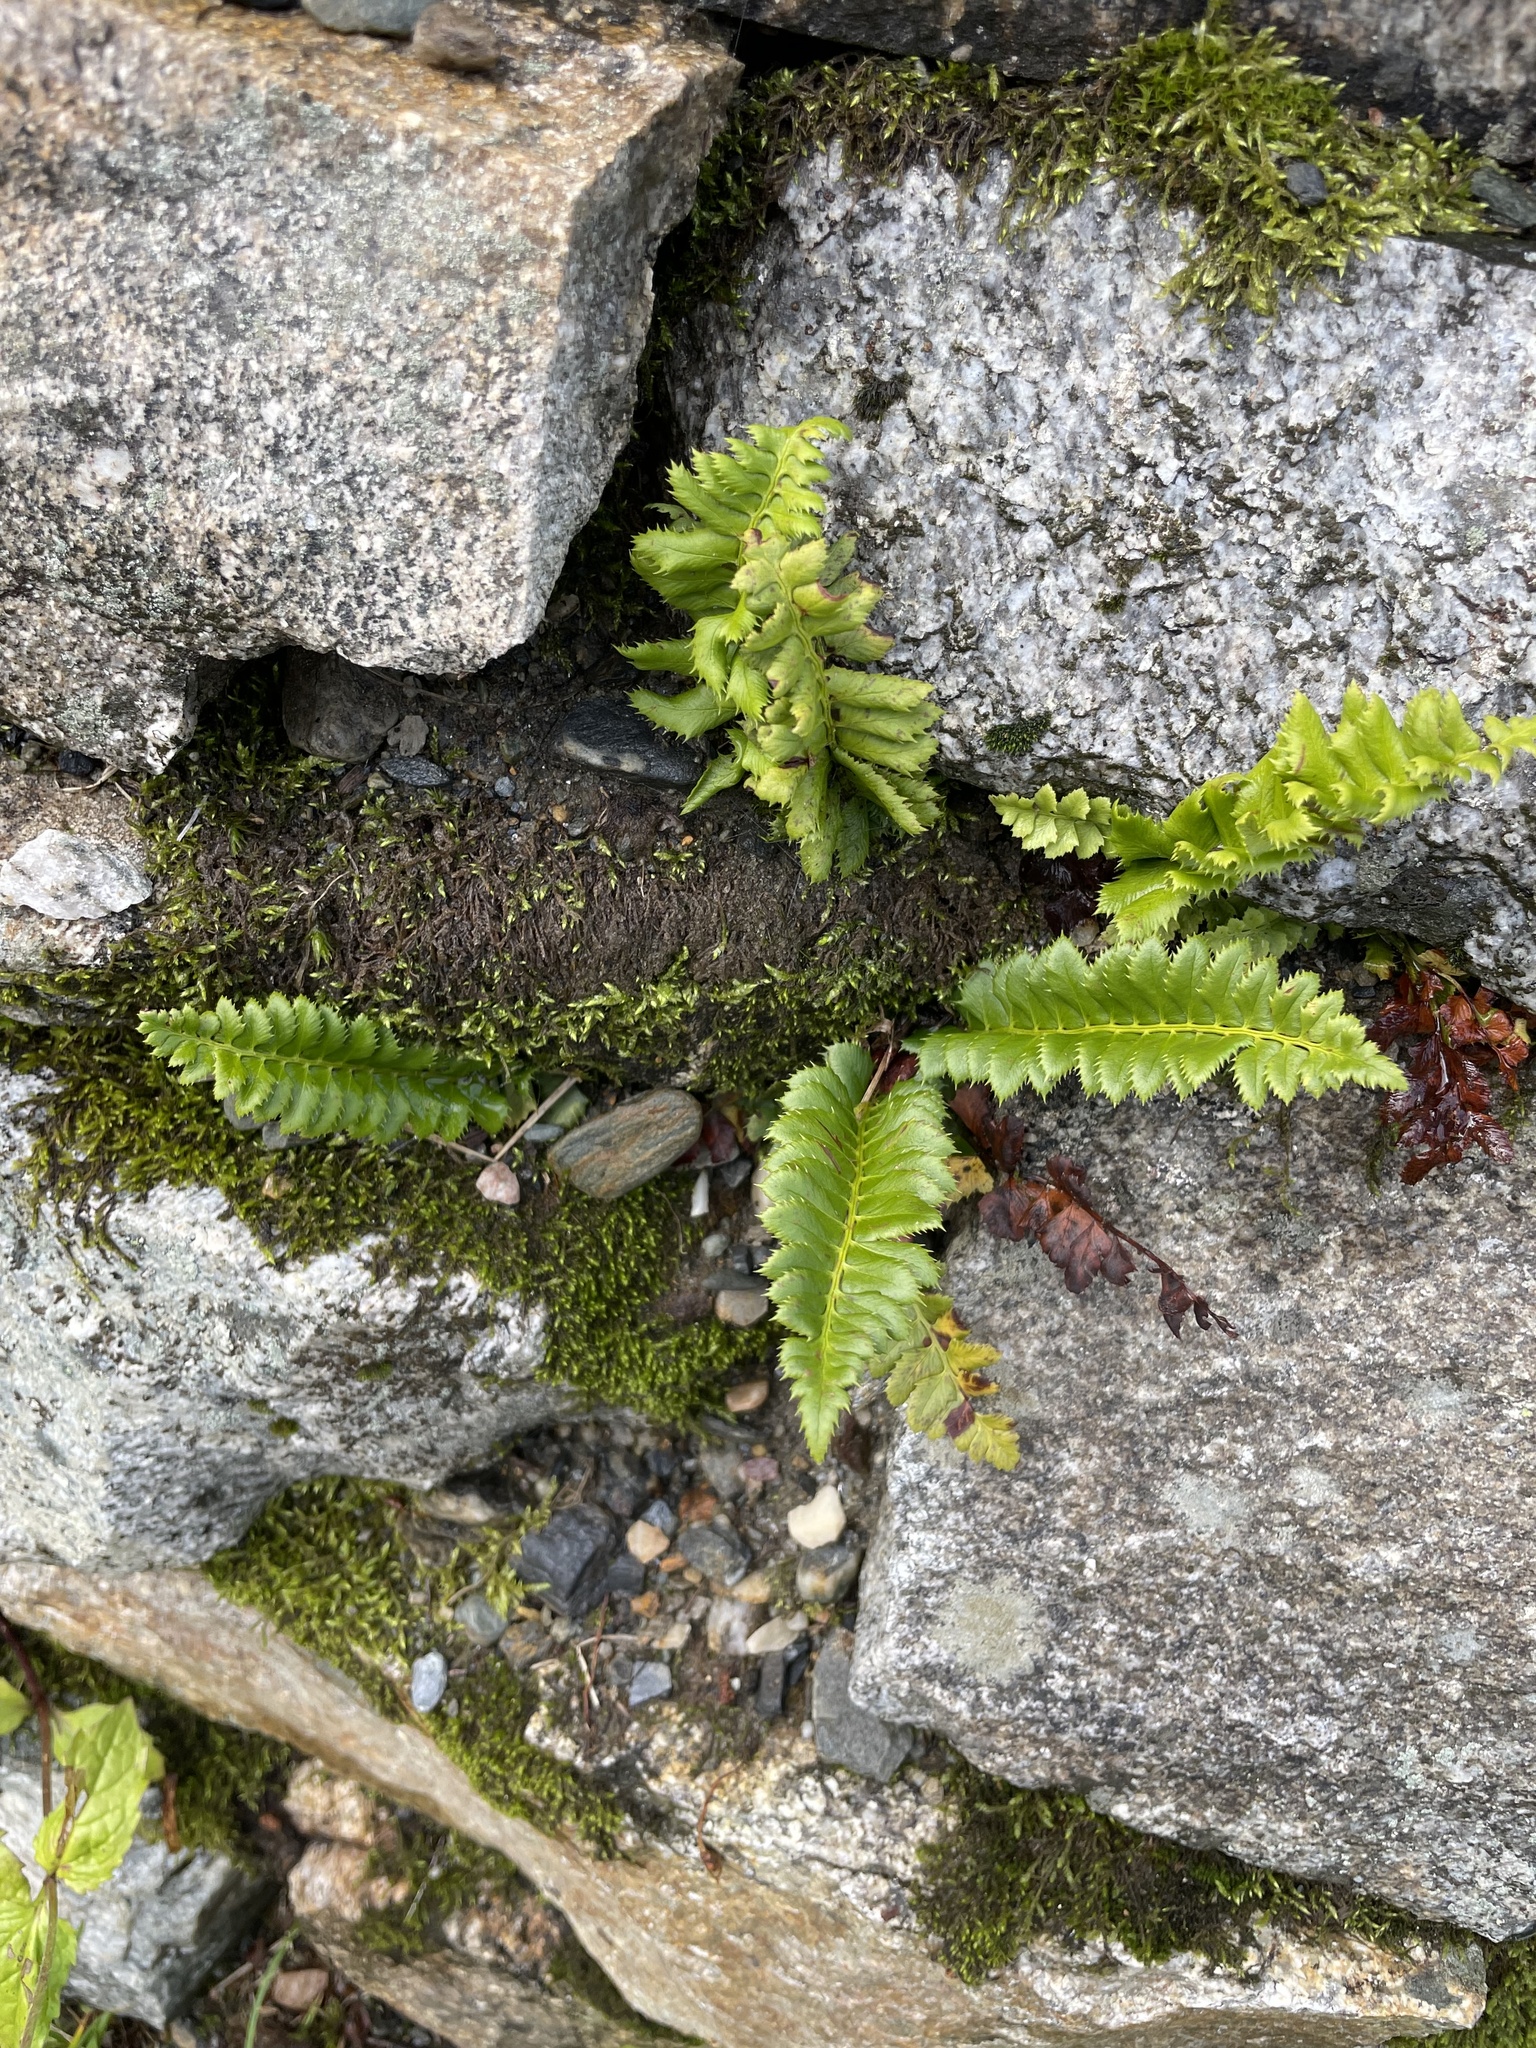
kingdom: Plantae
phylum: Tracheophyta
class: Polypodiopsida
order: Polypodiales
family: Dryopteridaceae
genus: Polystichum
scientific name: Polystichum lonchitis
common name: Holly fern
